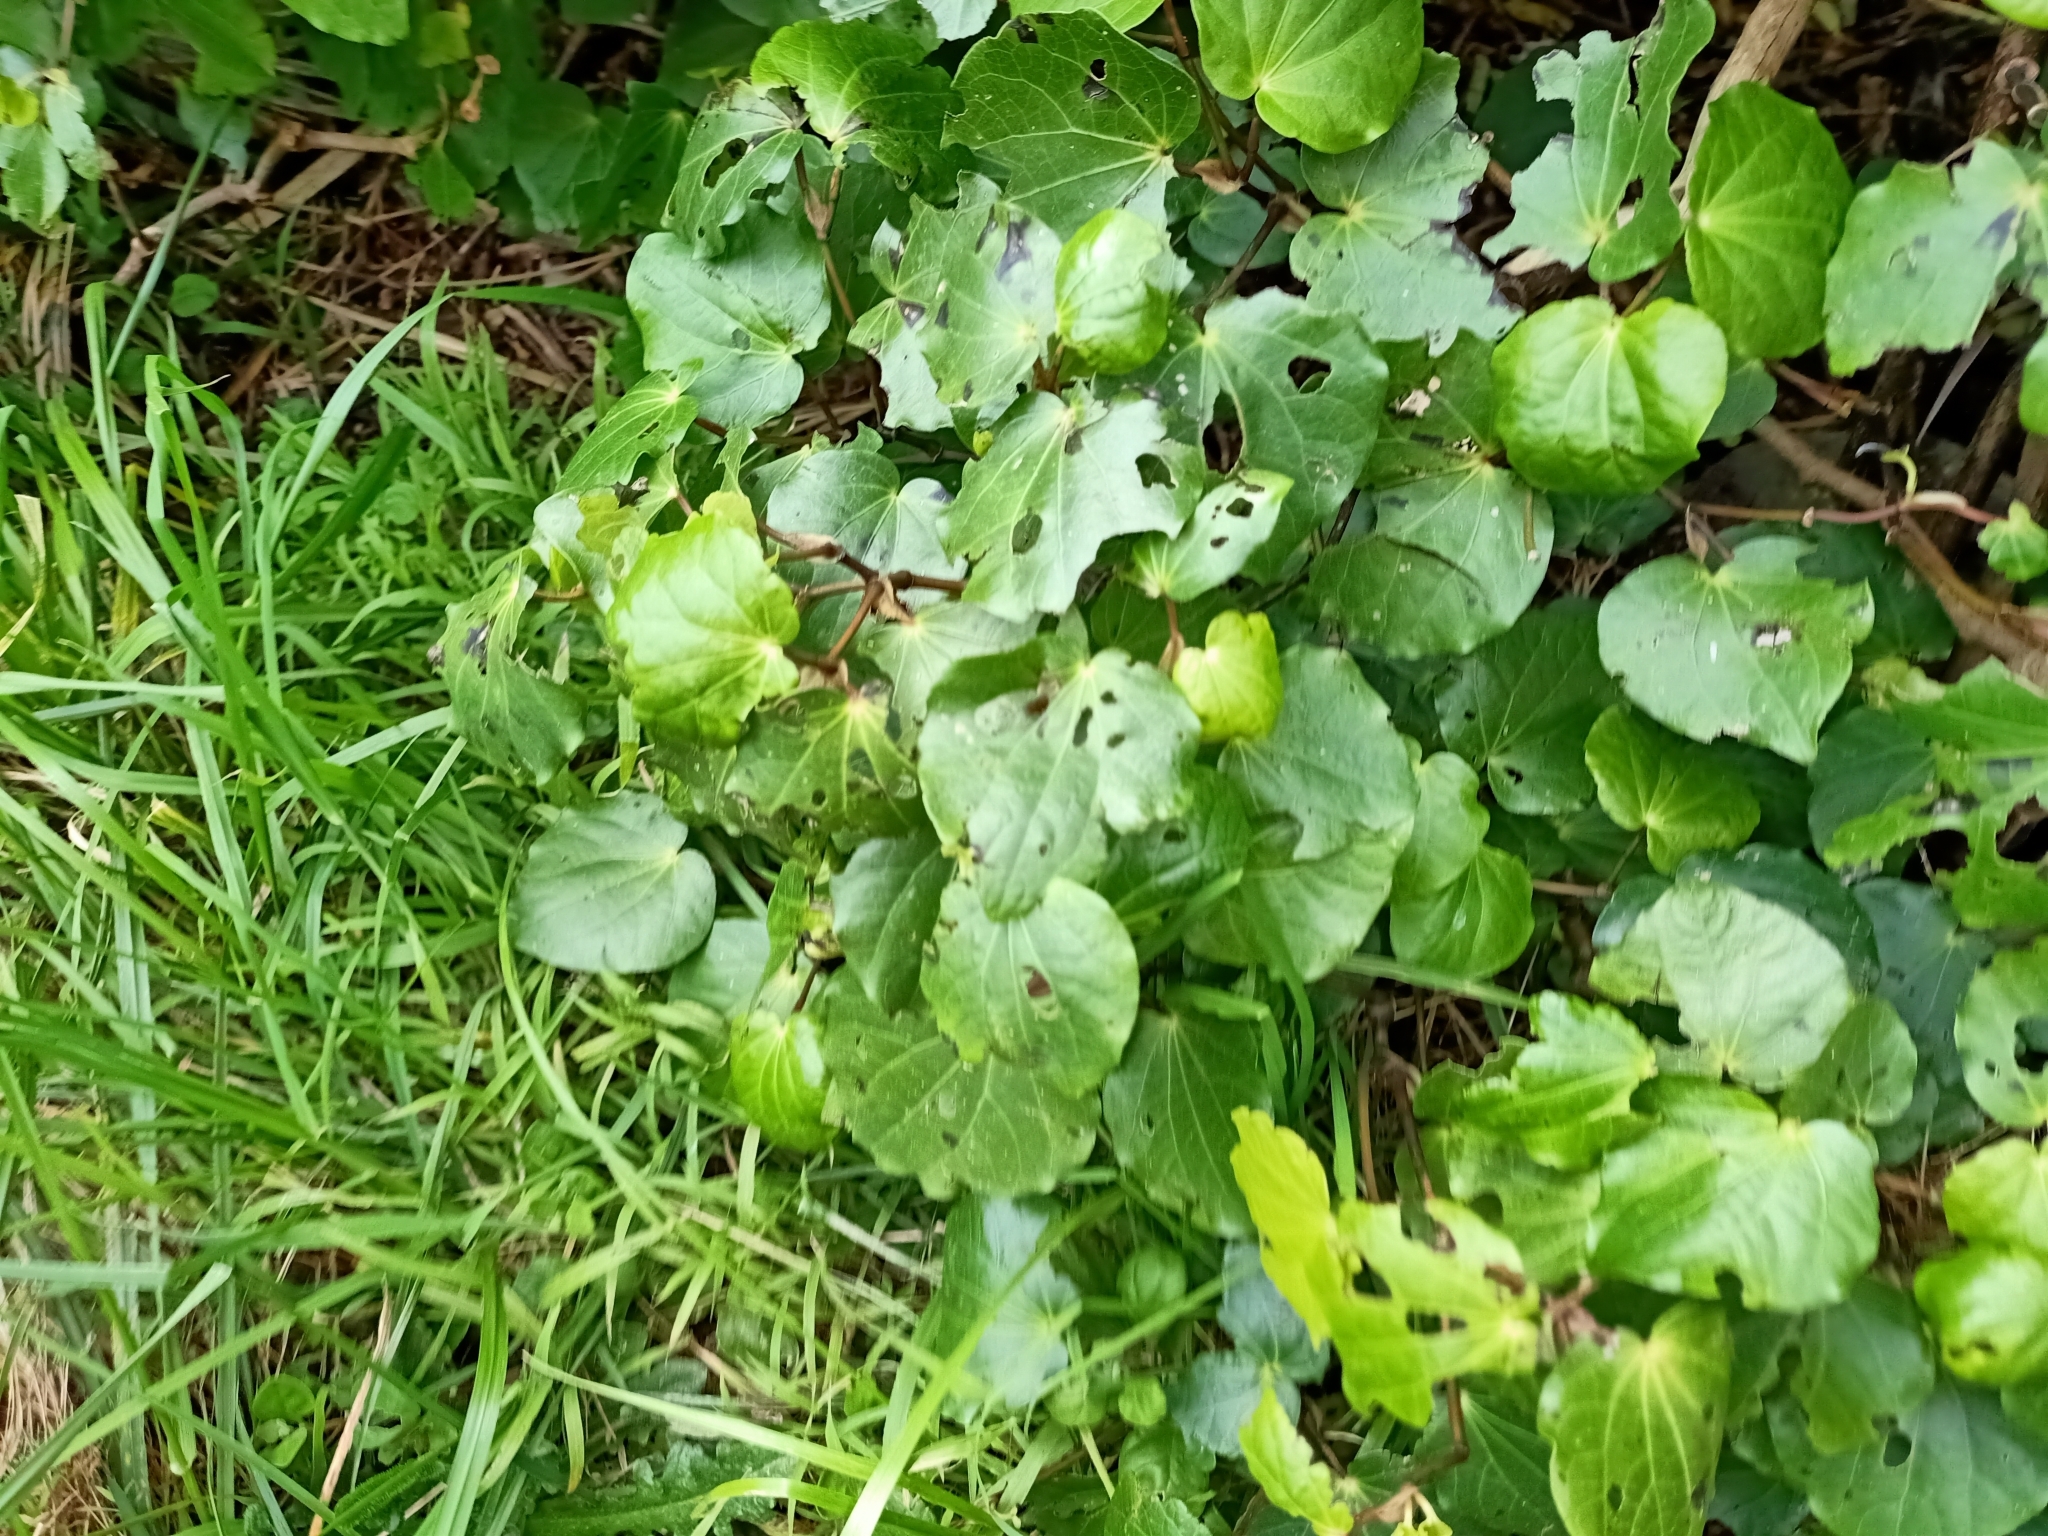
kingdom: Plantae
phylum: Tracheophyta
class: Magnoliopsida
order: Piperales
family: Piperaceae
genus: Macropiper
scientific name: Macropiper excelsum
